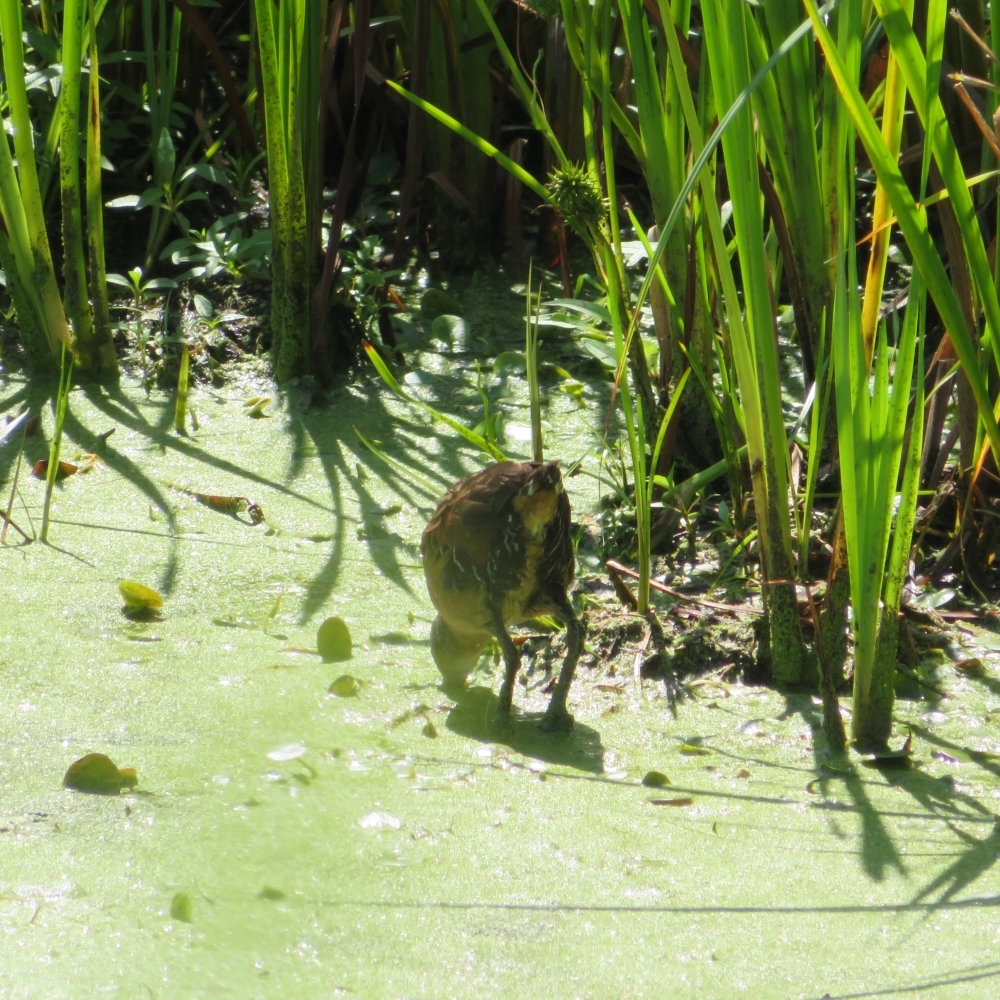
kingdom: Animalia
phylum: Chordata
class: Aves
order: Gruiformes
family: Rallidae
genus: Rallus
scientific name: Rallus limicola
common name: Virginia rail
